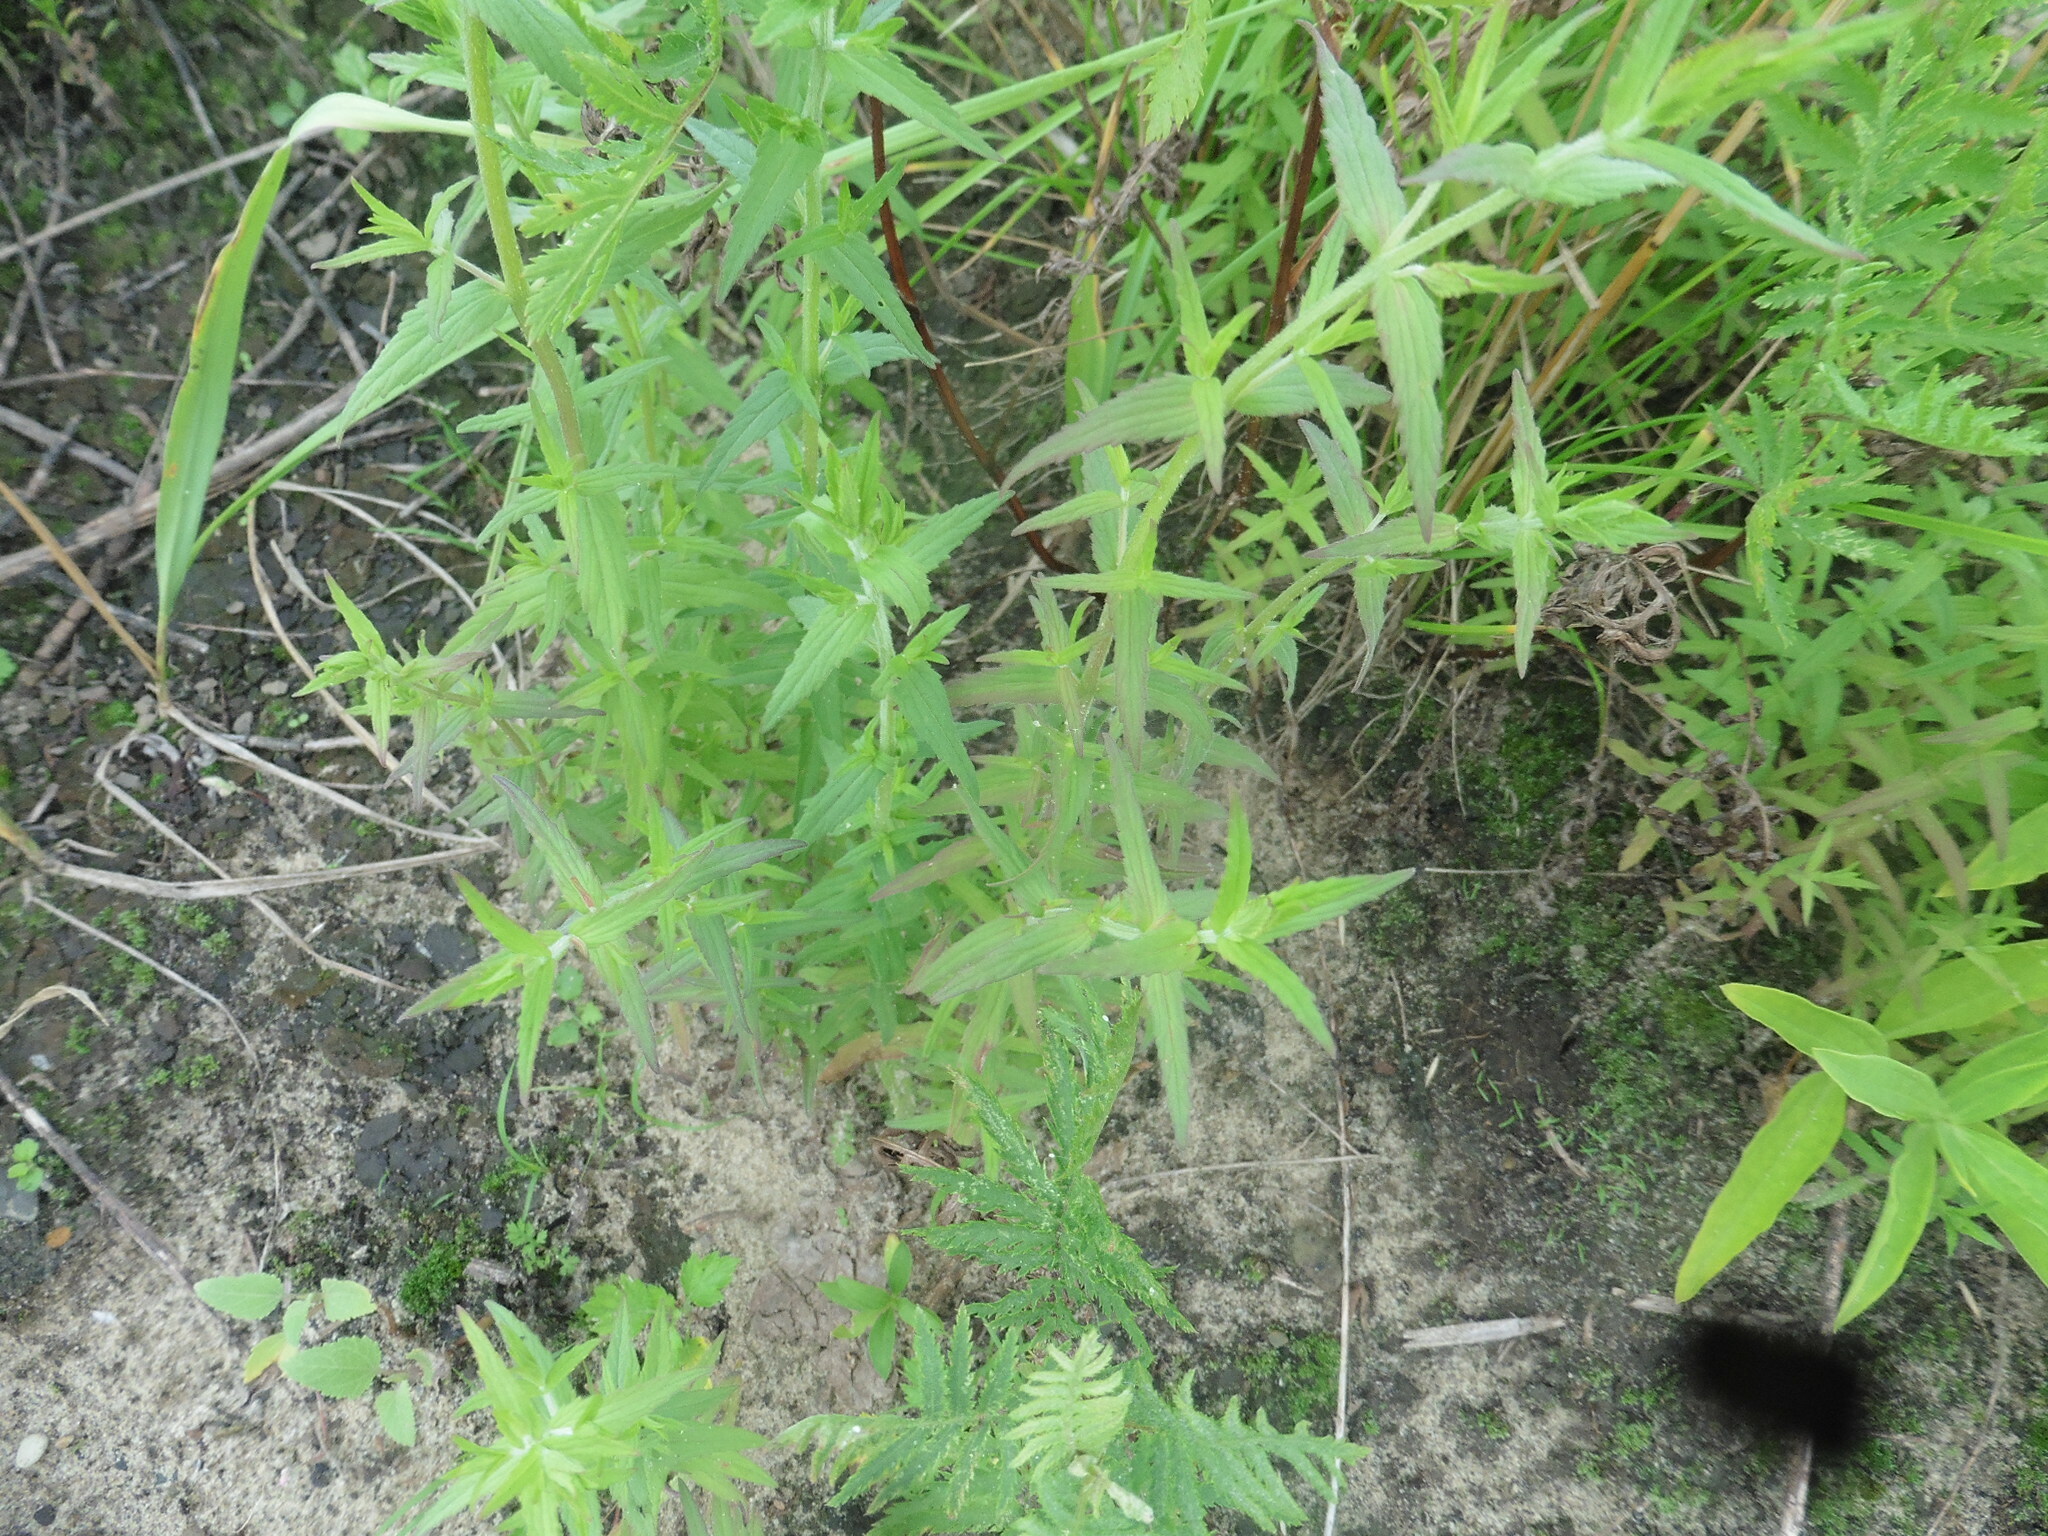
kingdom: Plantae
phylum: Tracheophyta
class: Magnoliopsida
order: Lamiales
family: Orobanchaceae
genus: Odontites
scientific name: Odontites vulgaris
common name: Broomrape
